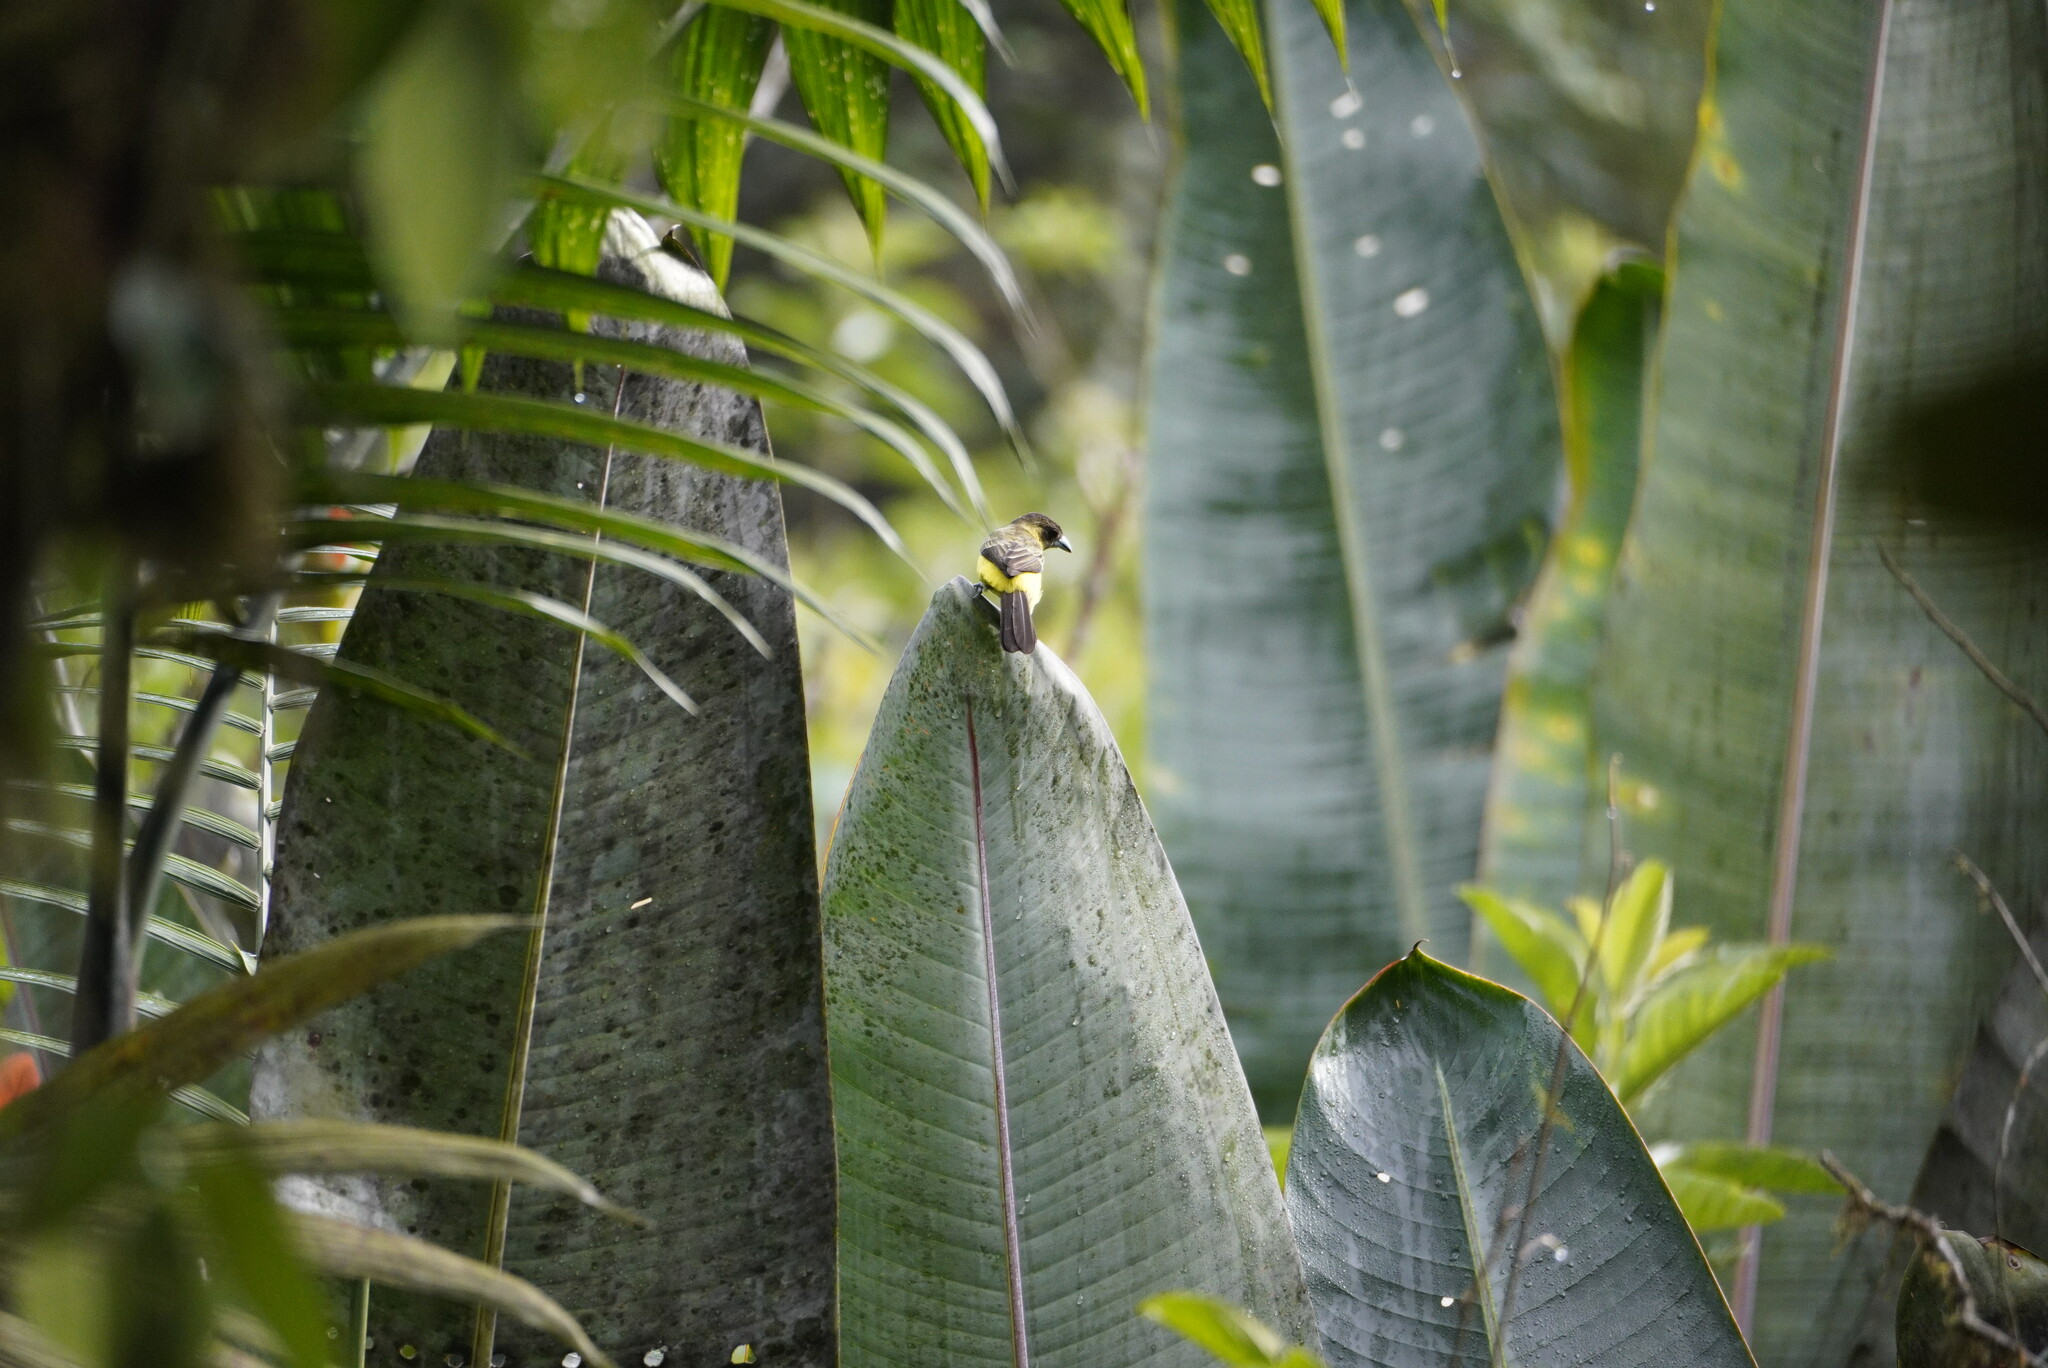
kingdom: Animalia
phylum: Chordata
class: Aves
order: Passeriformes
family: Thraupidae
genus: Ramphocelus
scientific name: Ramphocelus icteronotus
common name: Lemon-rumped tanager
